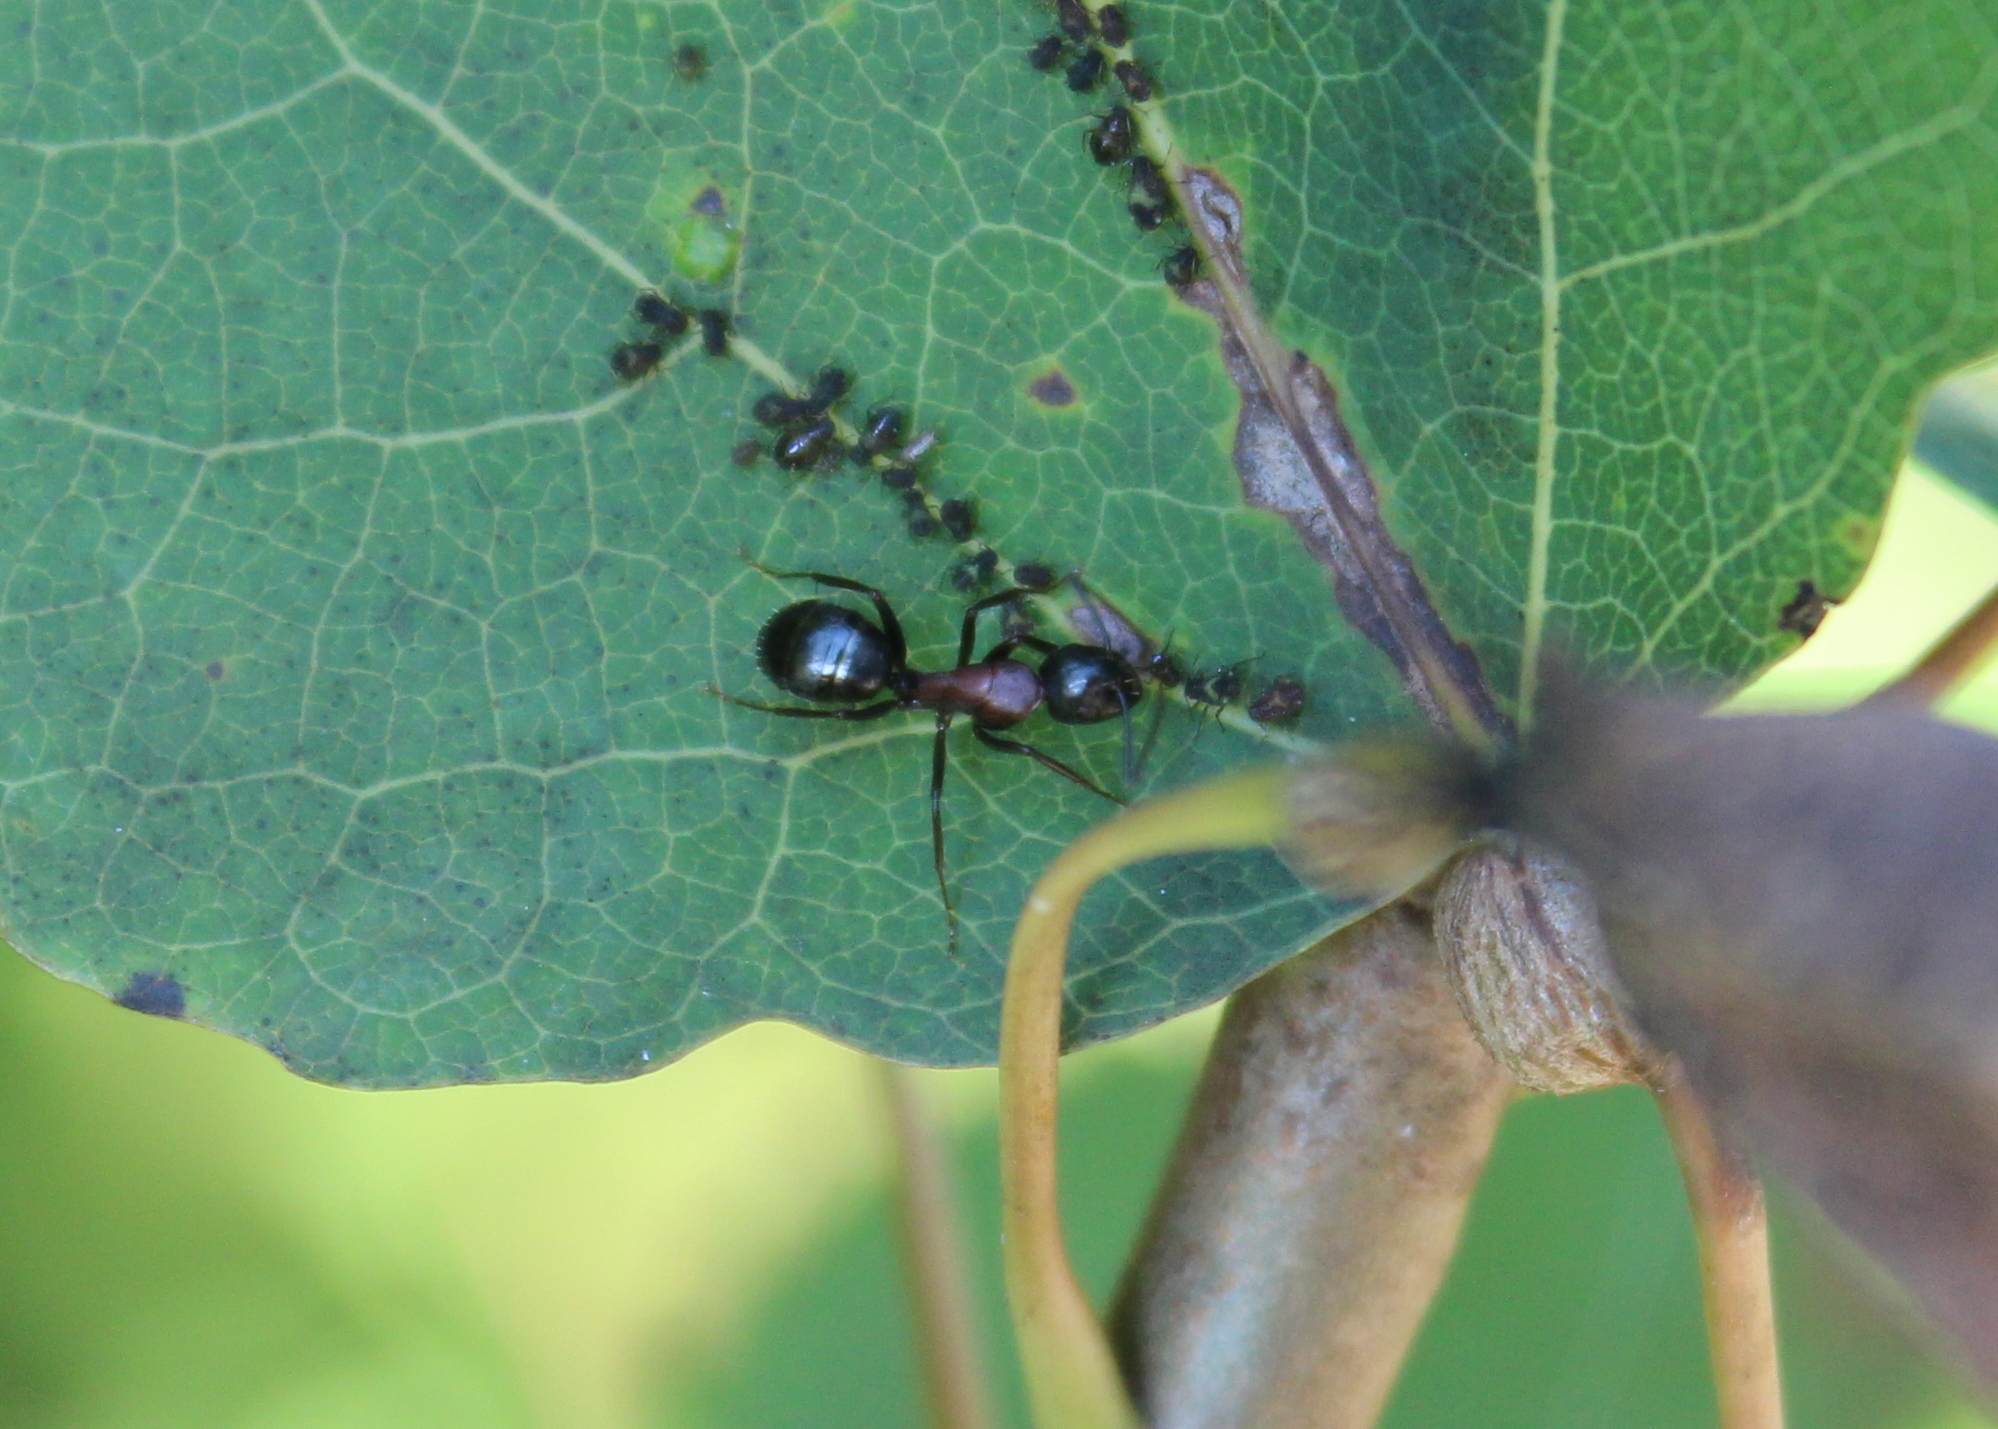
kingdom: Animalia
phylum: Arthropoda
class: Insecta
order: Hymenoptera
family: Formicidae
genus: Camponotus
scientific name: Camponotus novaeboracensis
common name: New york carpenter ant
